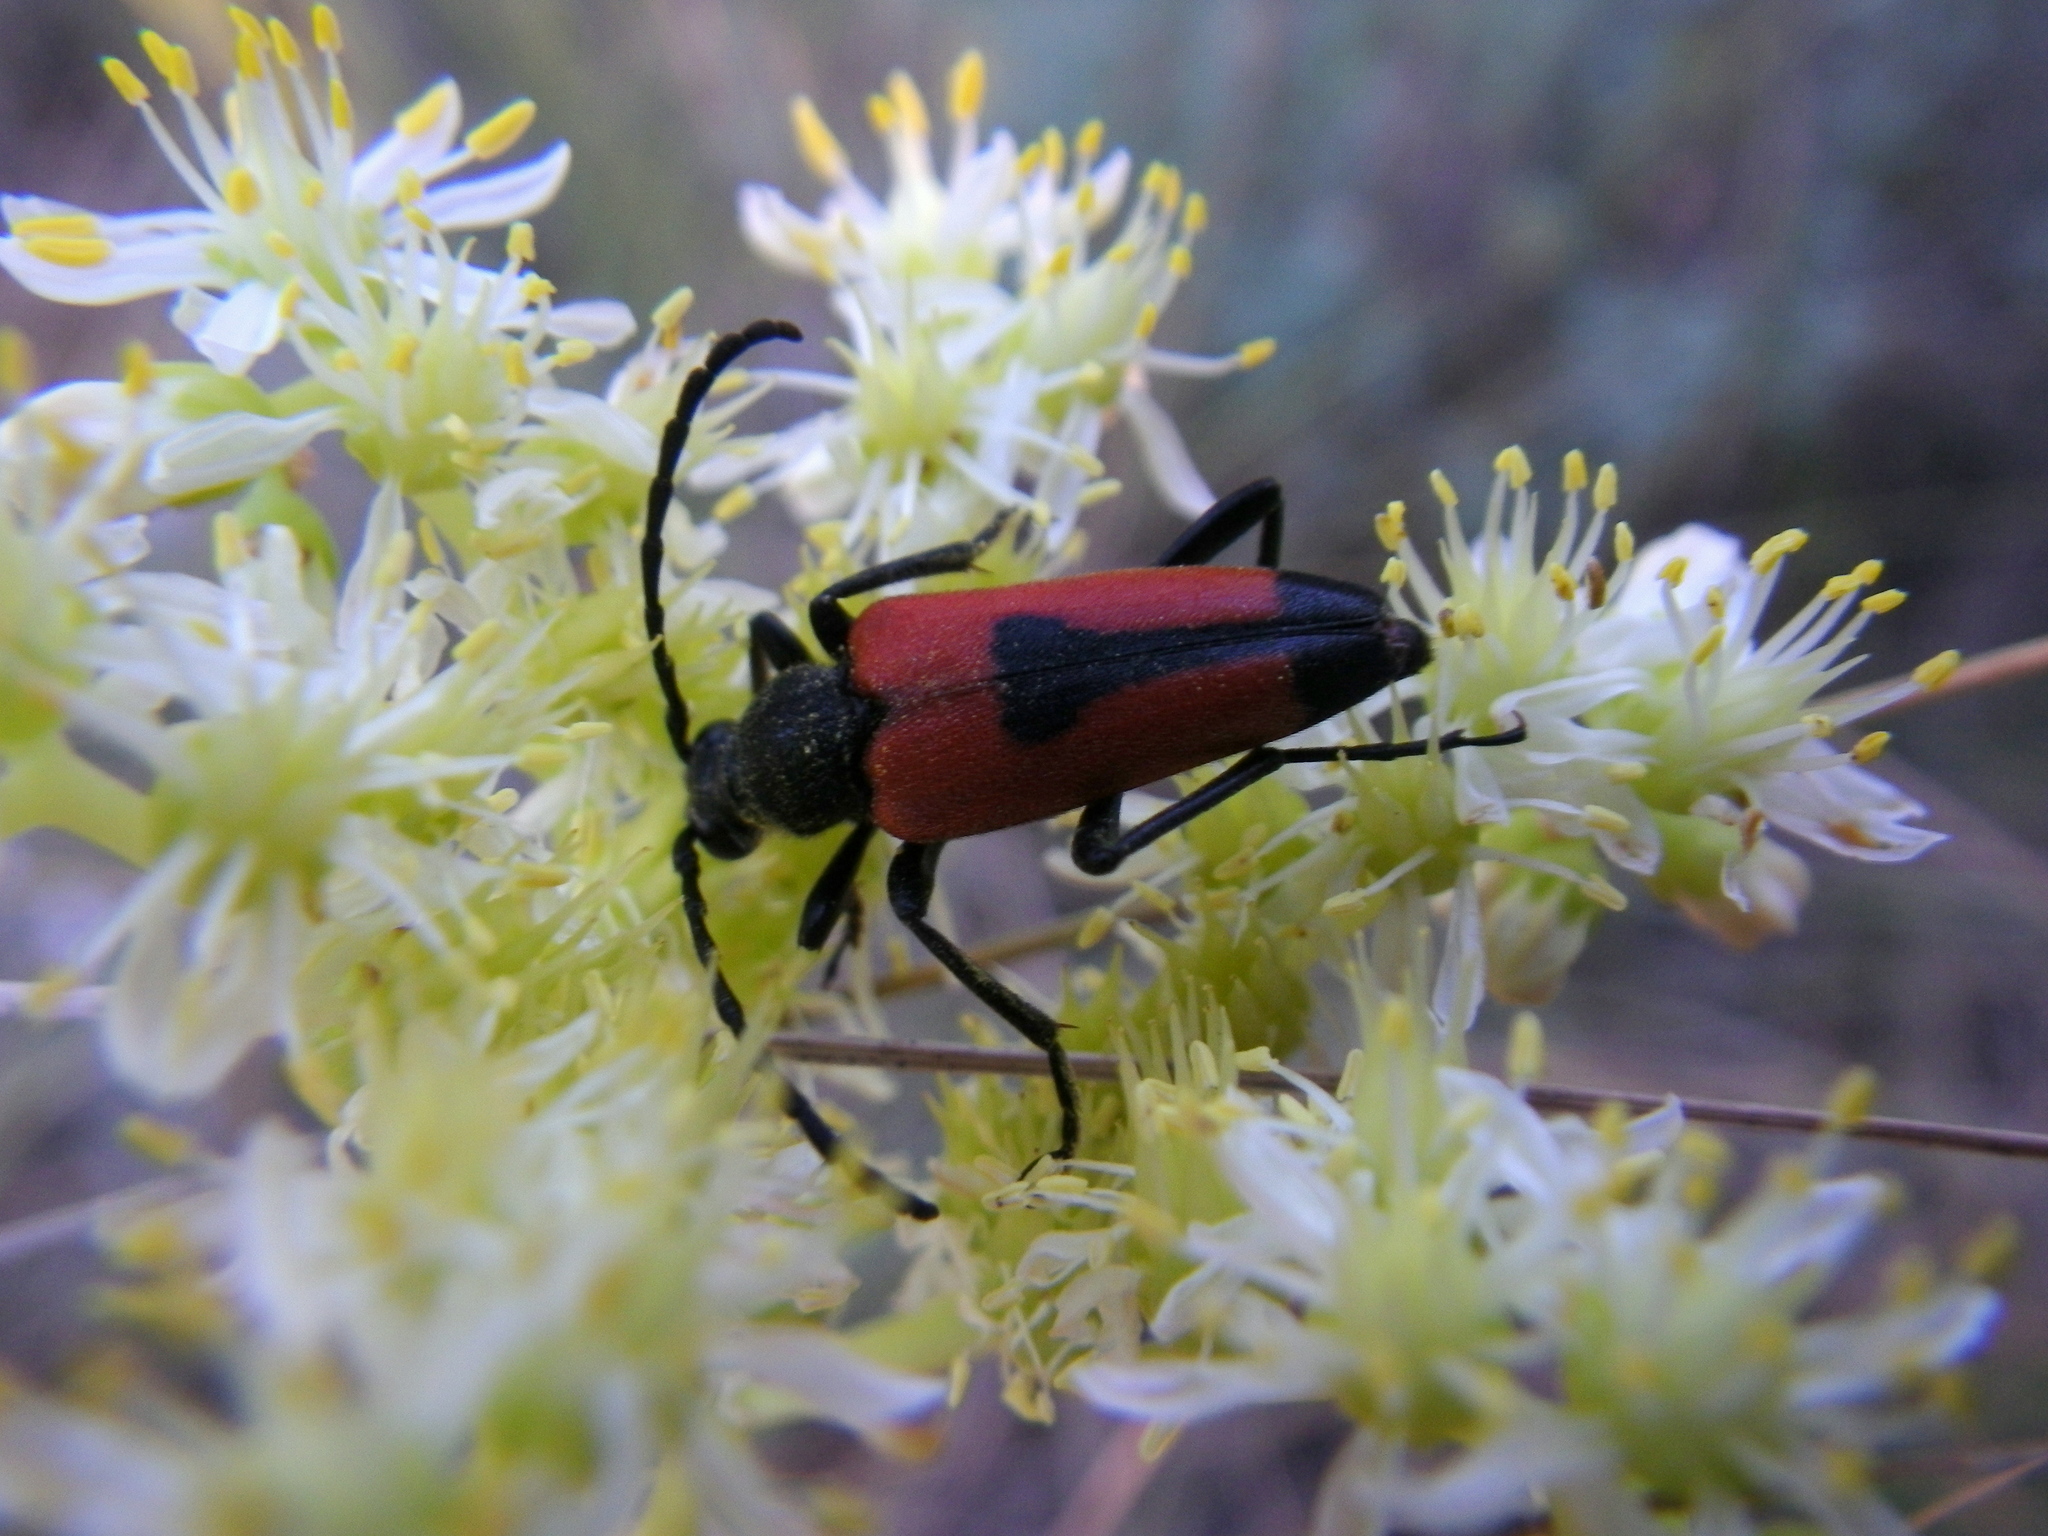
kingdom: Animalia
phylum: Arthropoda
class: Insecta
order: Coleoptera
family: Cerambycidae
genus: Stictoleptura
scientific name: Stictoleptura cordigera
